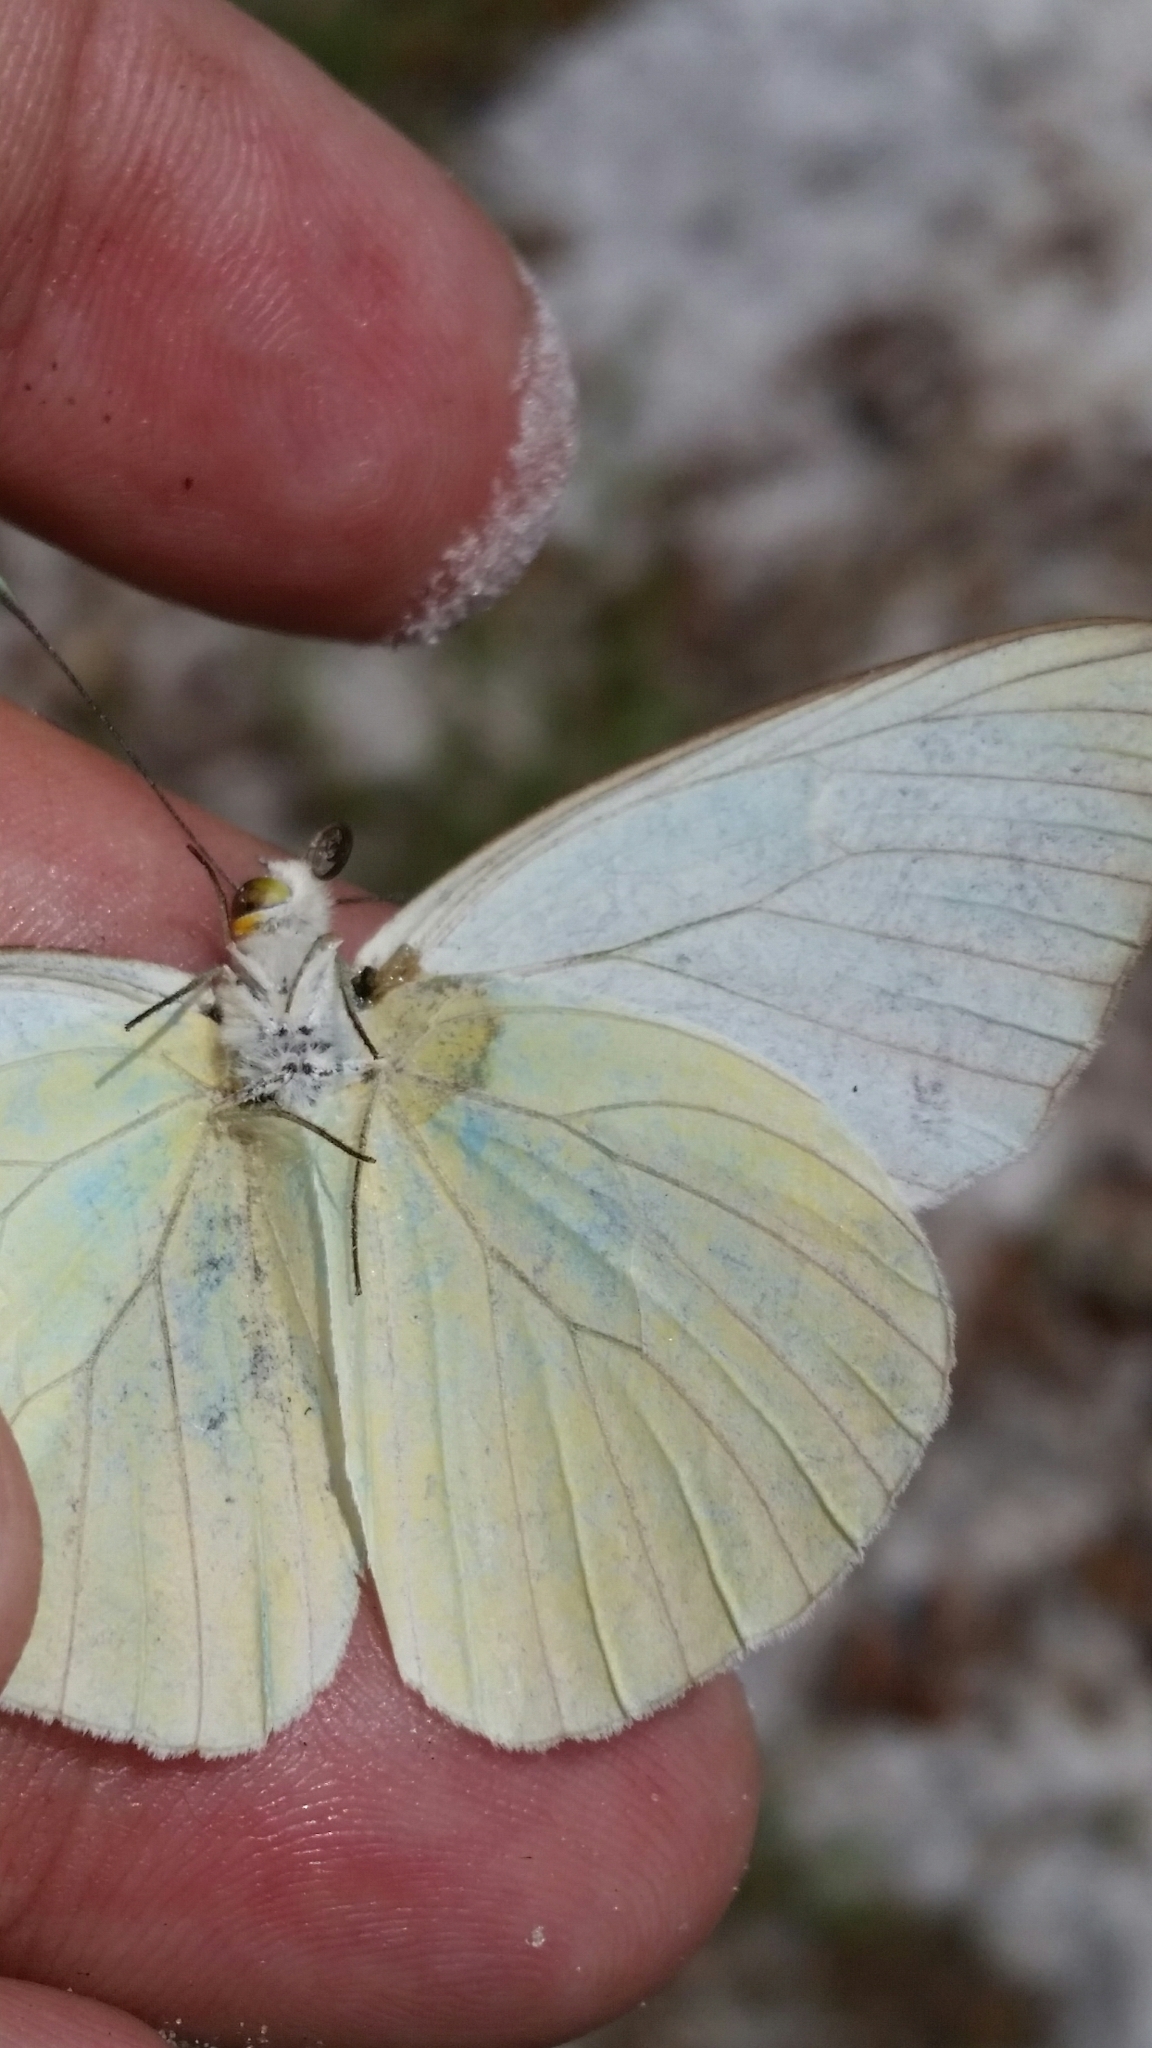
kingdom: Animalia
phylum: Arthropoda
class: Insecta
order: Lepidoptera
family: Pieridae
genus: Ascia
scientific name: Ascia monuste
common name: Great southern white
